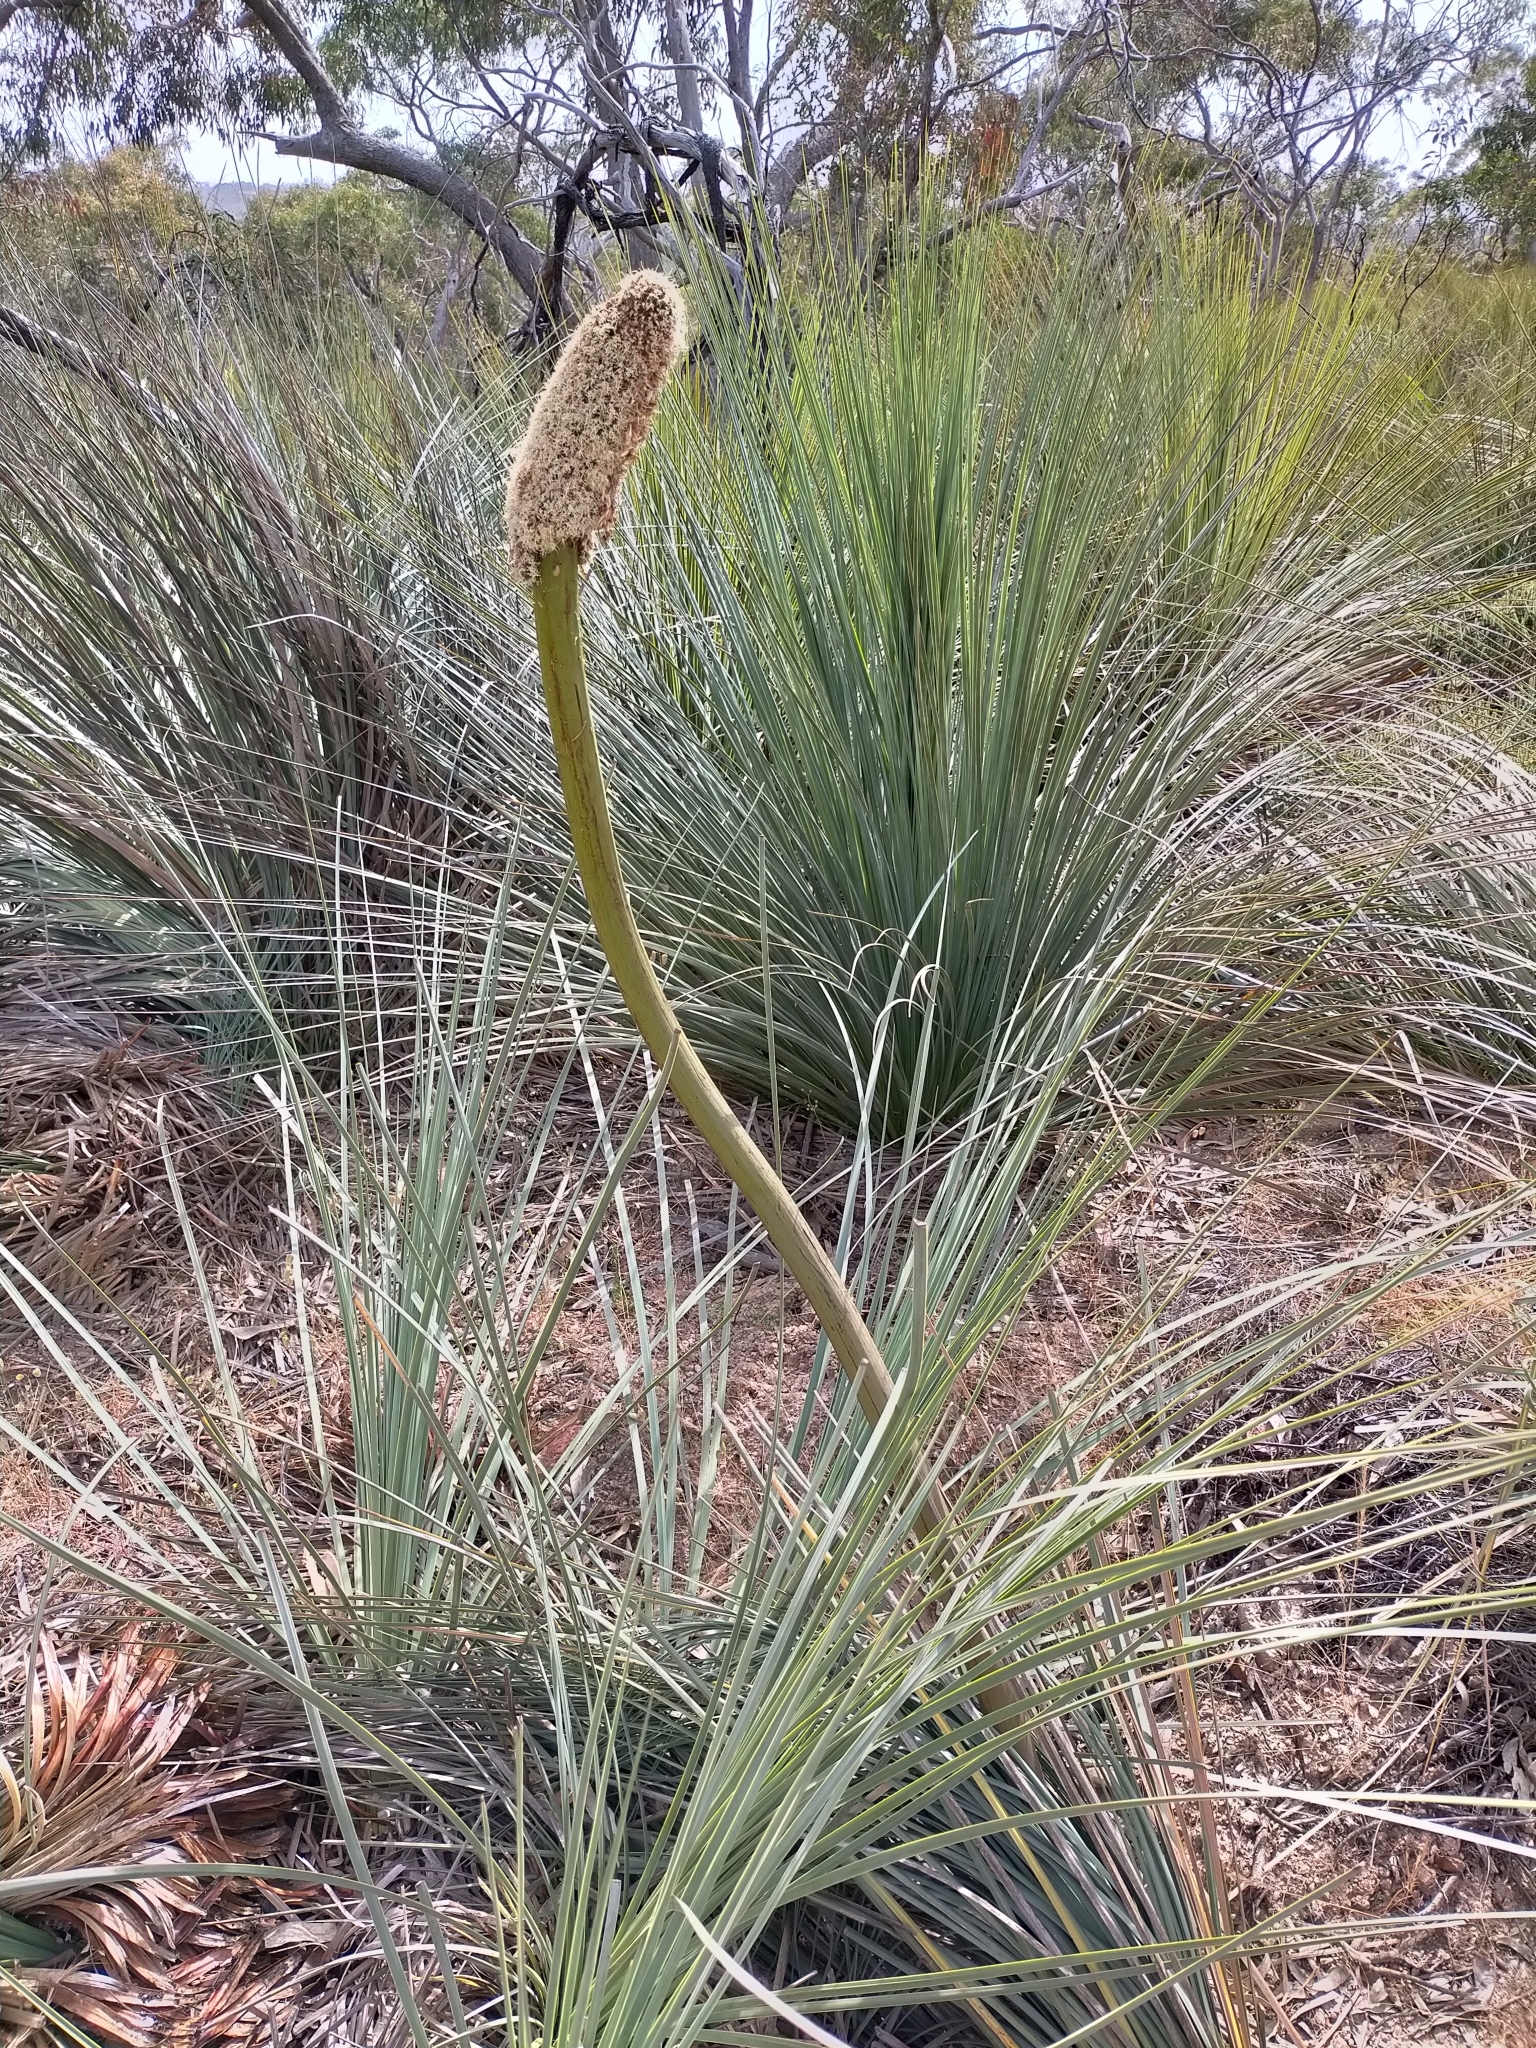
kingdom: Plantae
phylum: Tracheophyta
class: Liliopsida
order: Asparagales
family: Asphodelaceae
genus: Xanthorrhoea
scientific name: Xanthorrhoea semiplana
